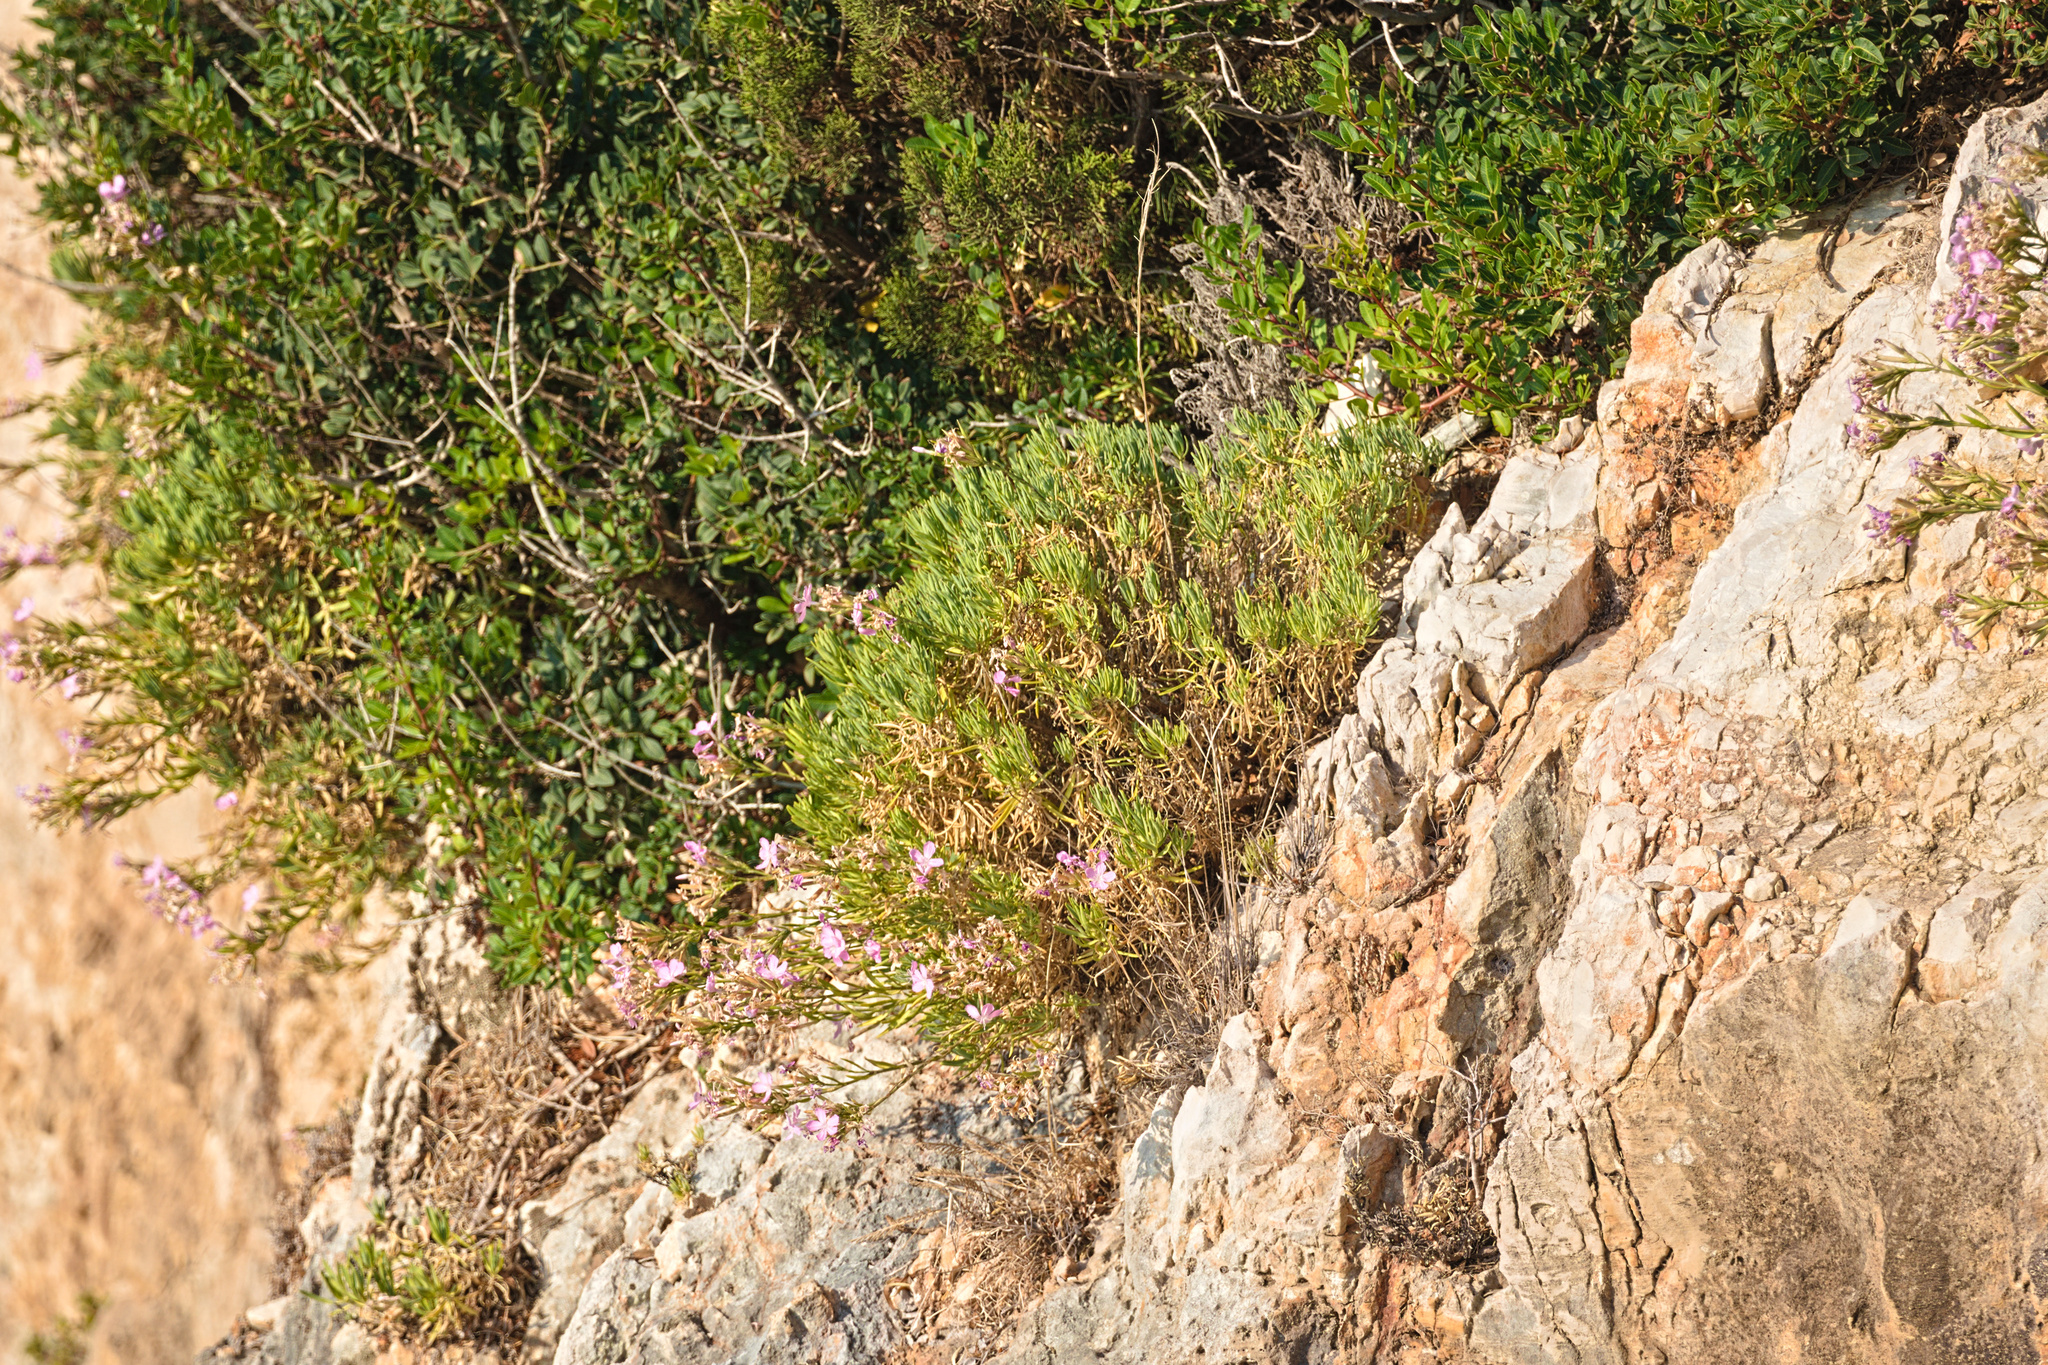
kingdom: Plantae
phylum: Tracheophyta
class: Magnoliopsida
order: Caryophyllales
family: Caryophyllaceae
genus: Dianthus
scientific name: Dianthus fruticosus
